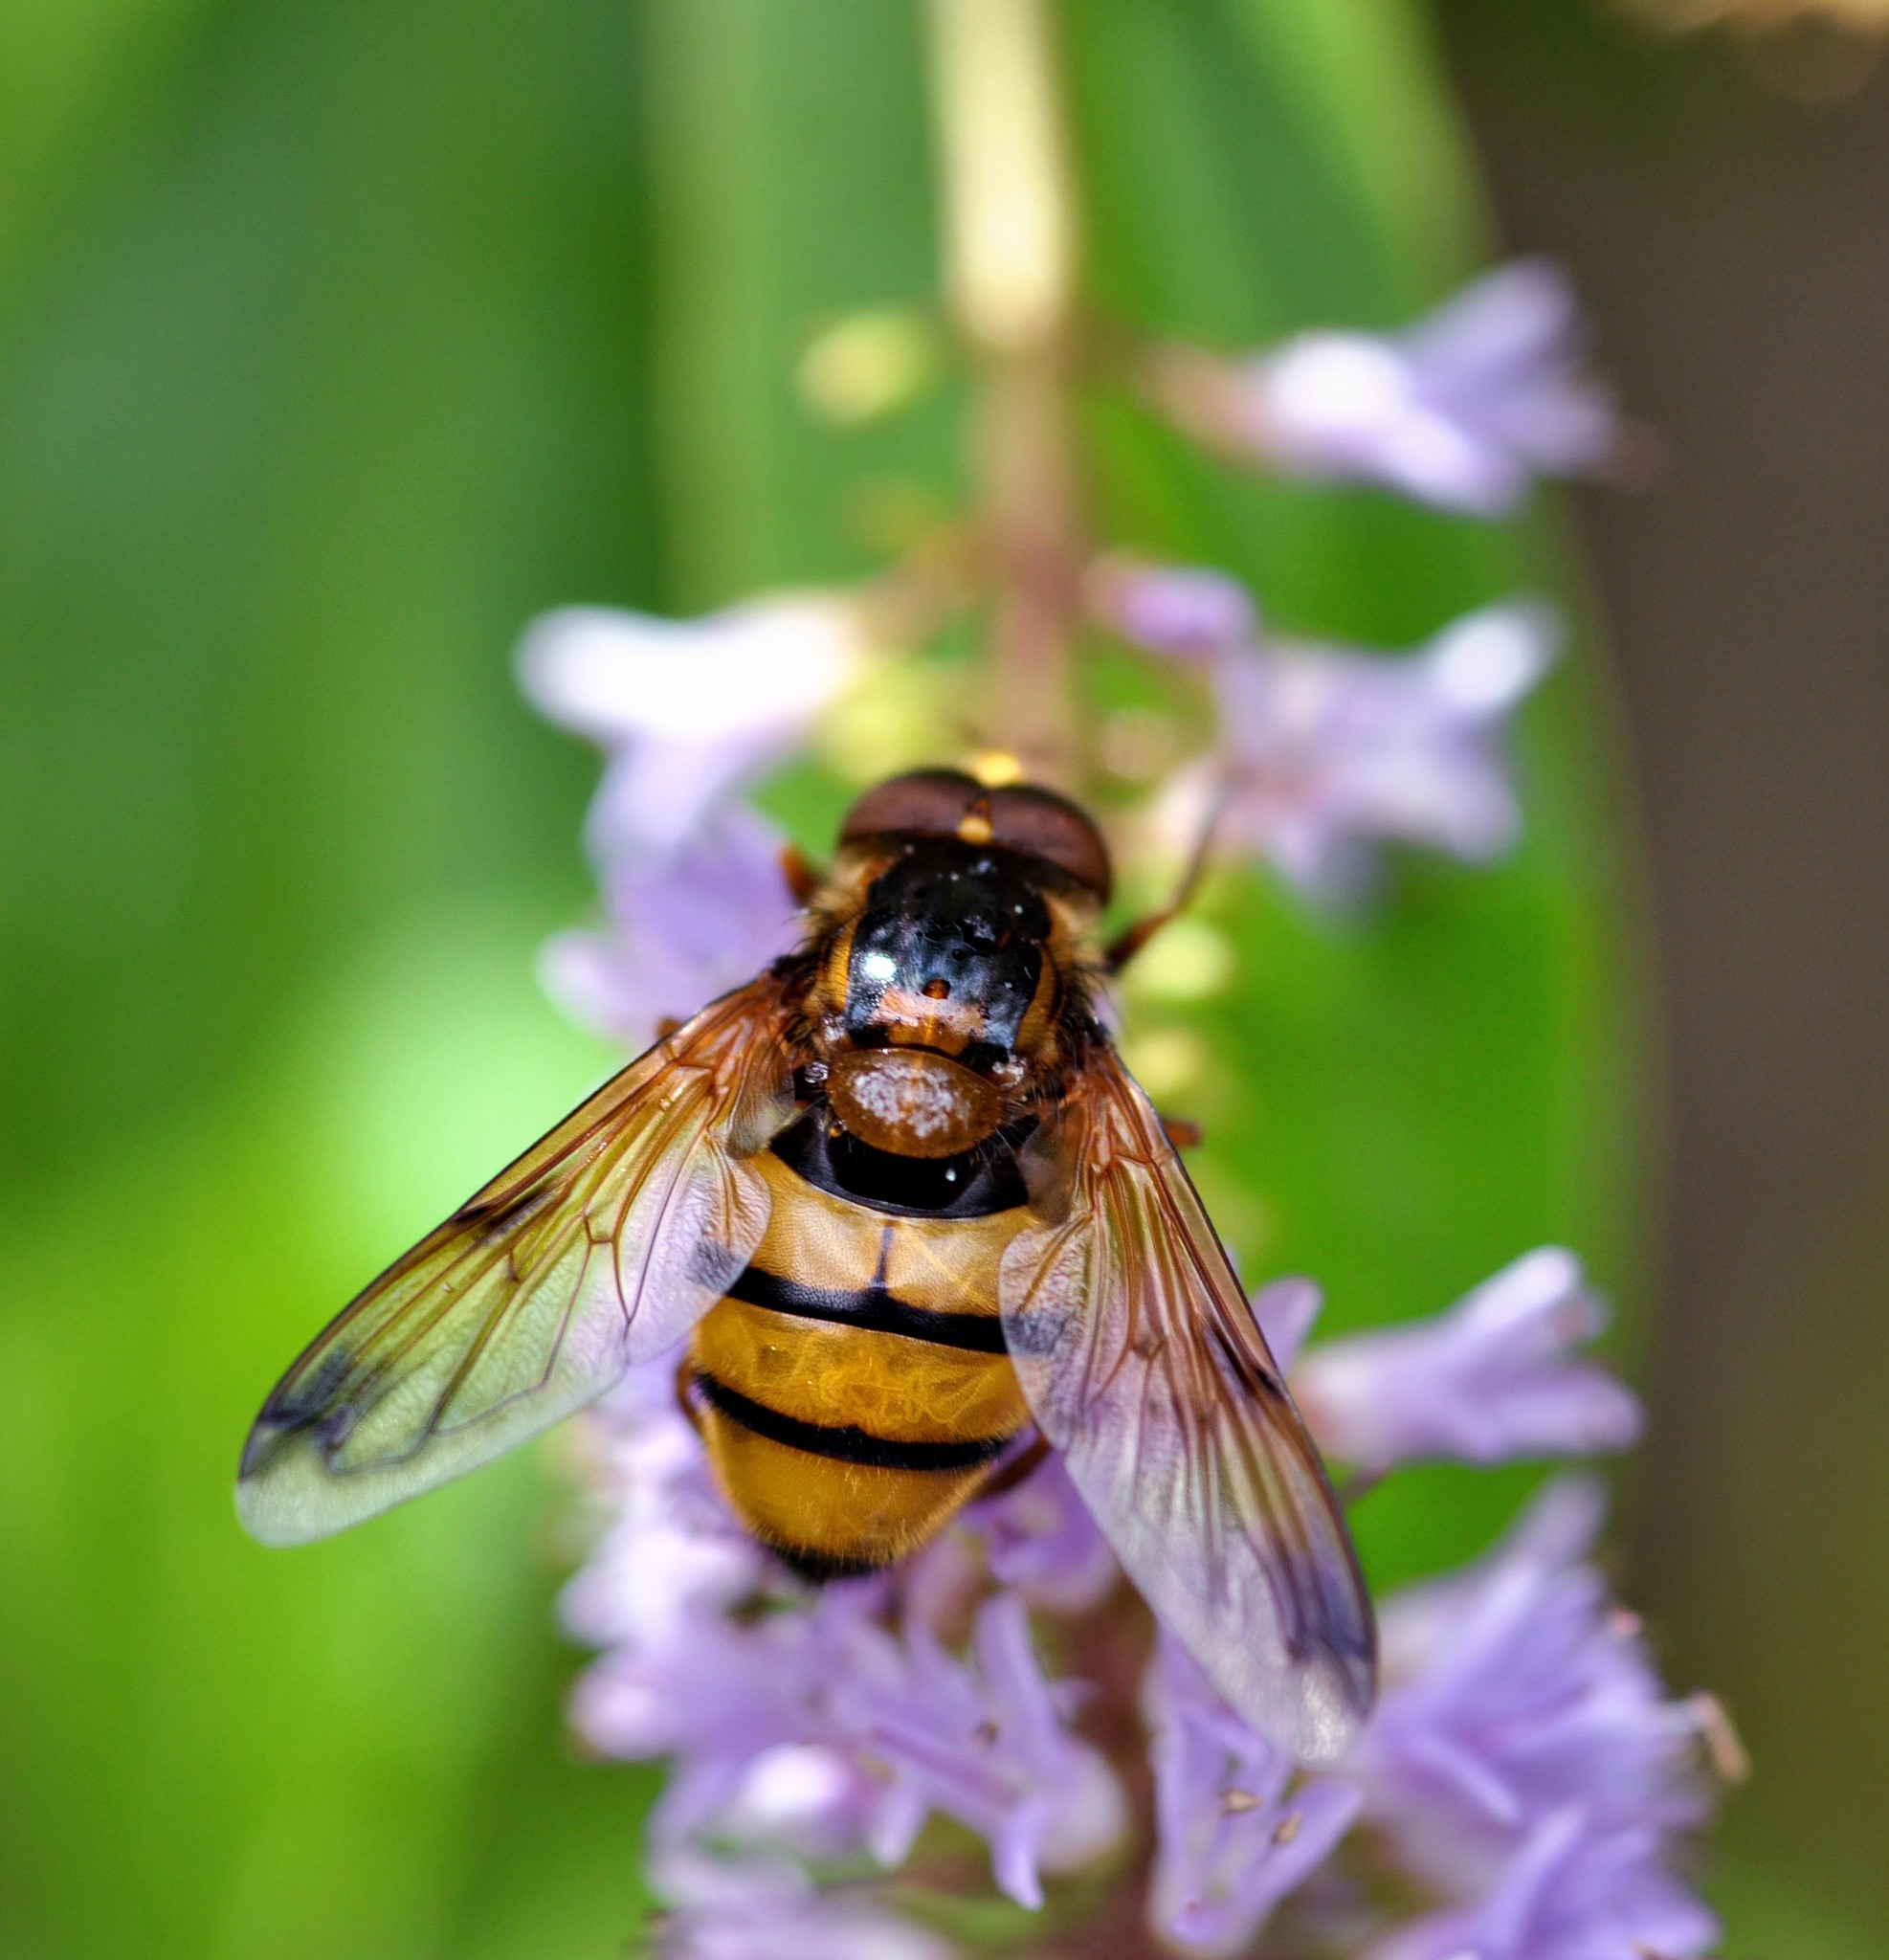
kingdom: Animalia
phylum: Arthropoda
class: Insecta
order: Diptera
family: Syrphidae
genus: Volucella
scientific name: Volucella inanis
